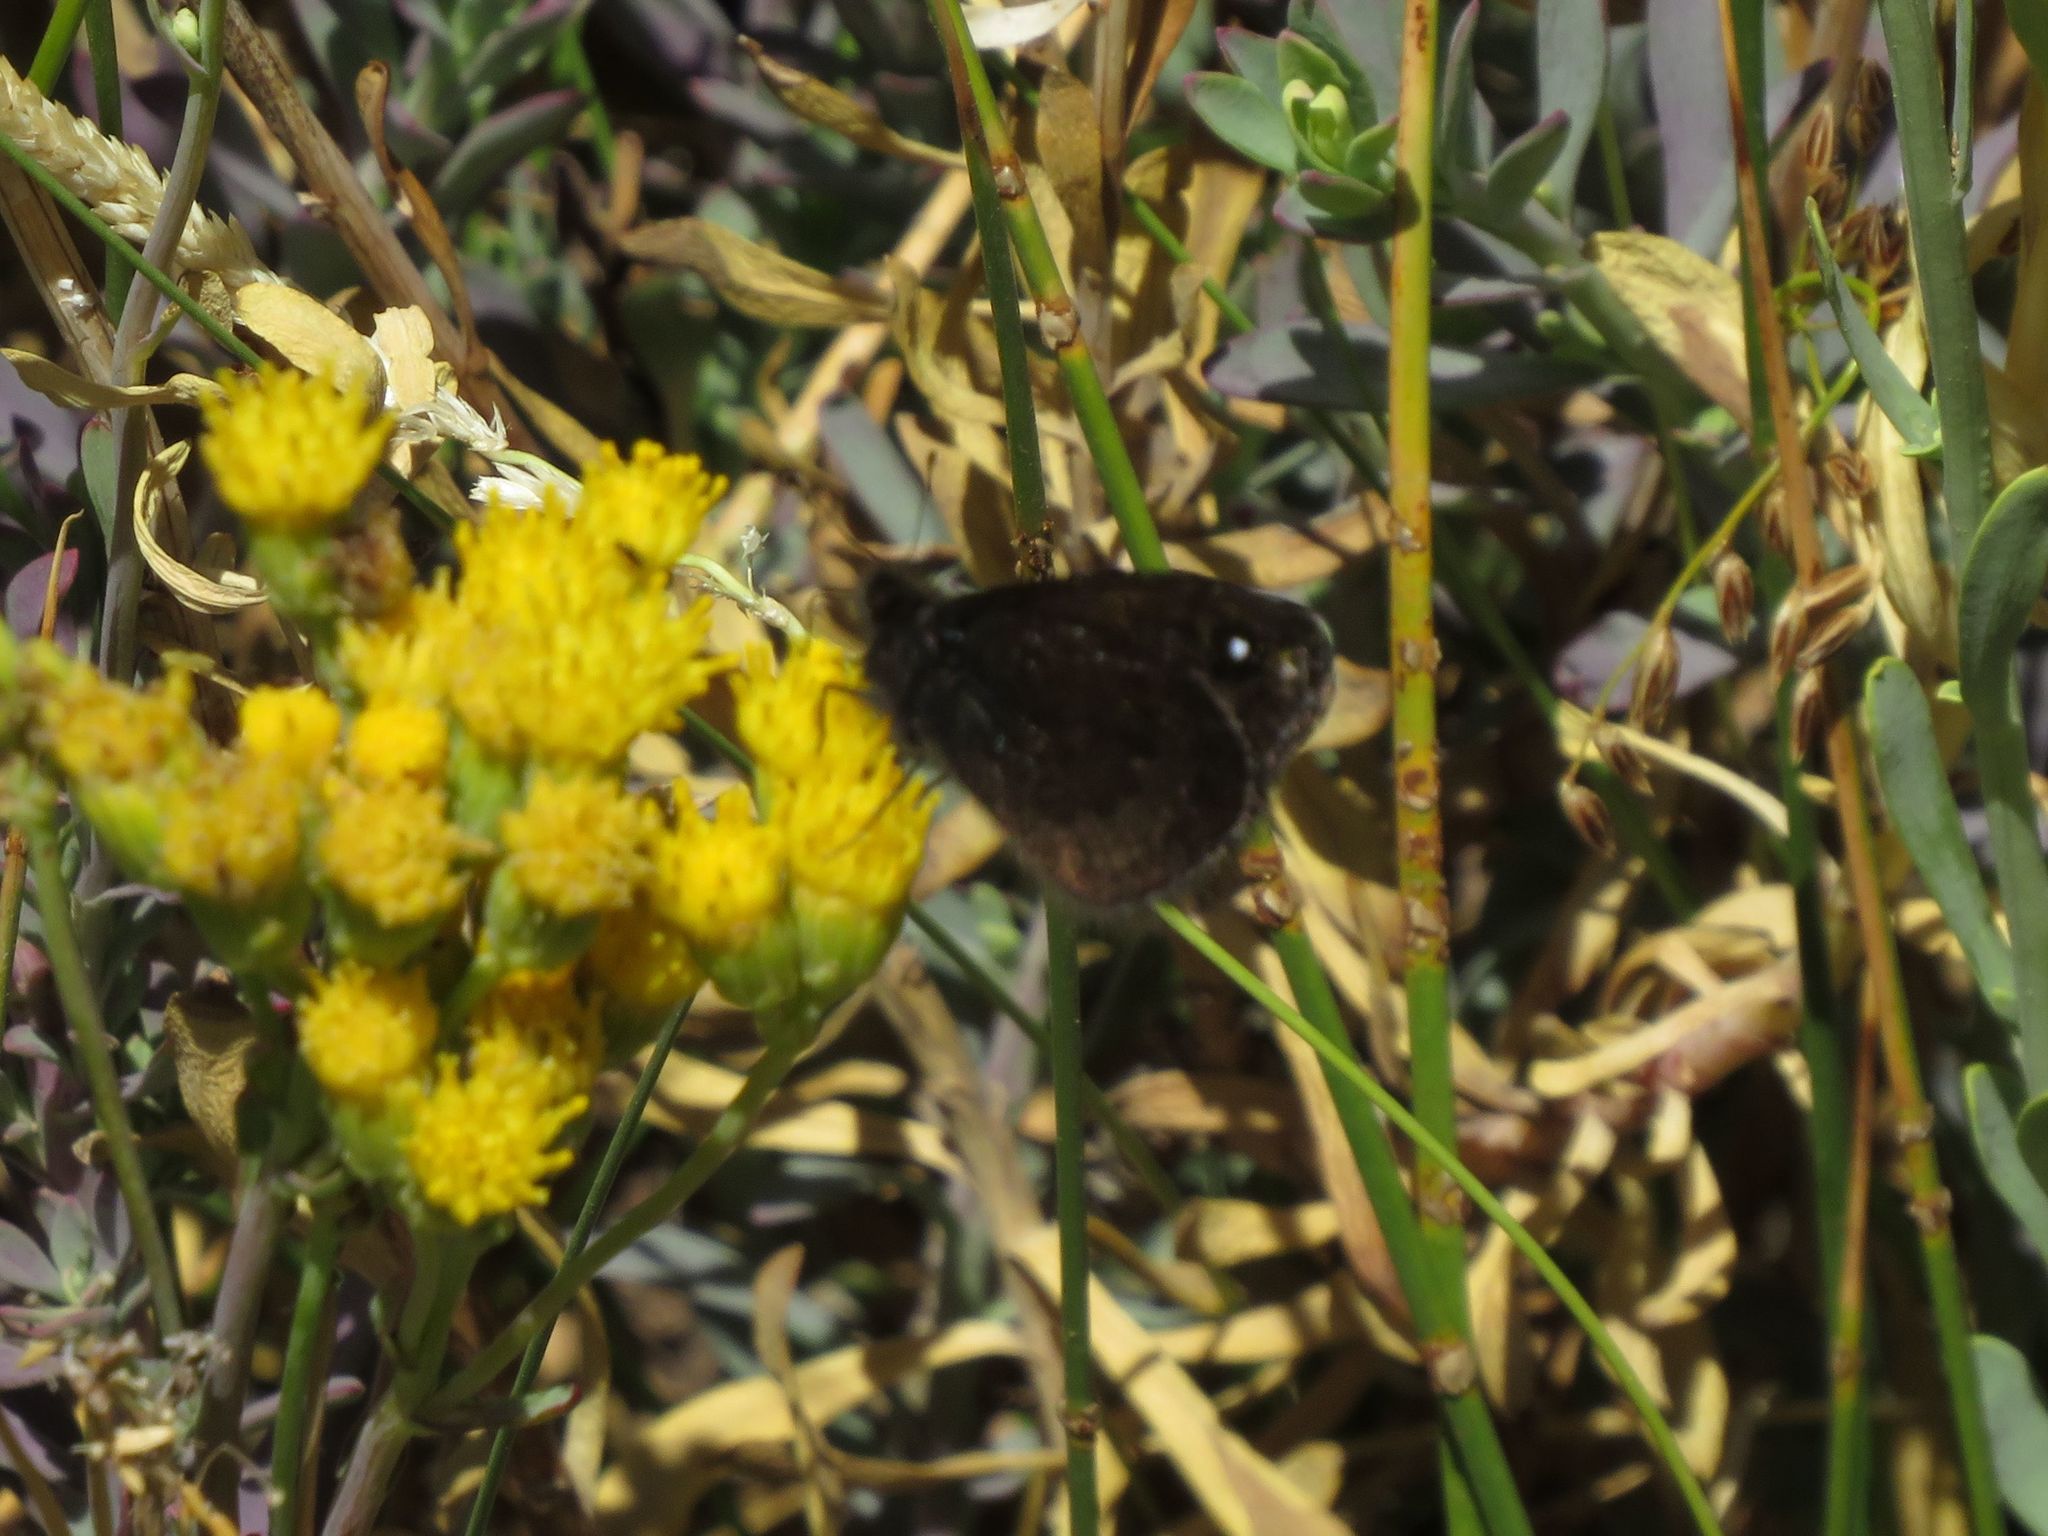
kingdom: Animalia
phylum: Arthropoda
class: Insecta
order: Lepidoptera
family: Nymphalidae
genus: Faunula
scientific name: Faunula leucoglene
